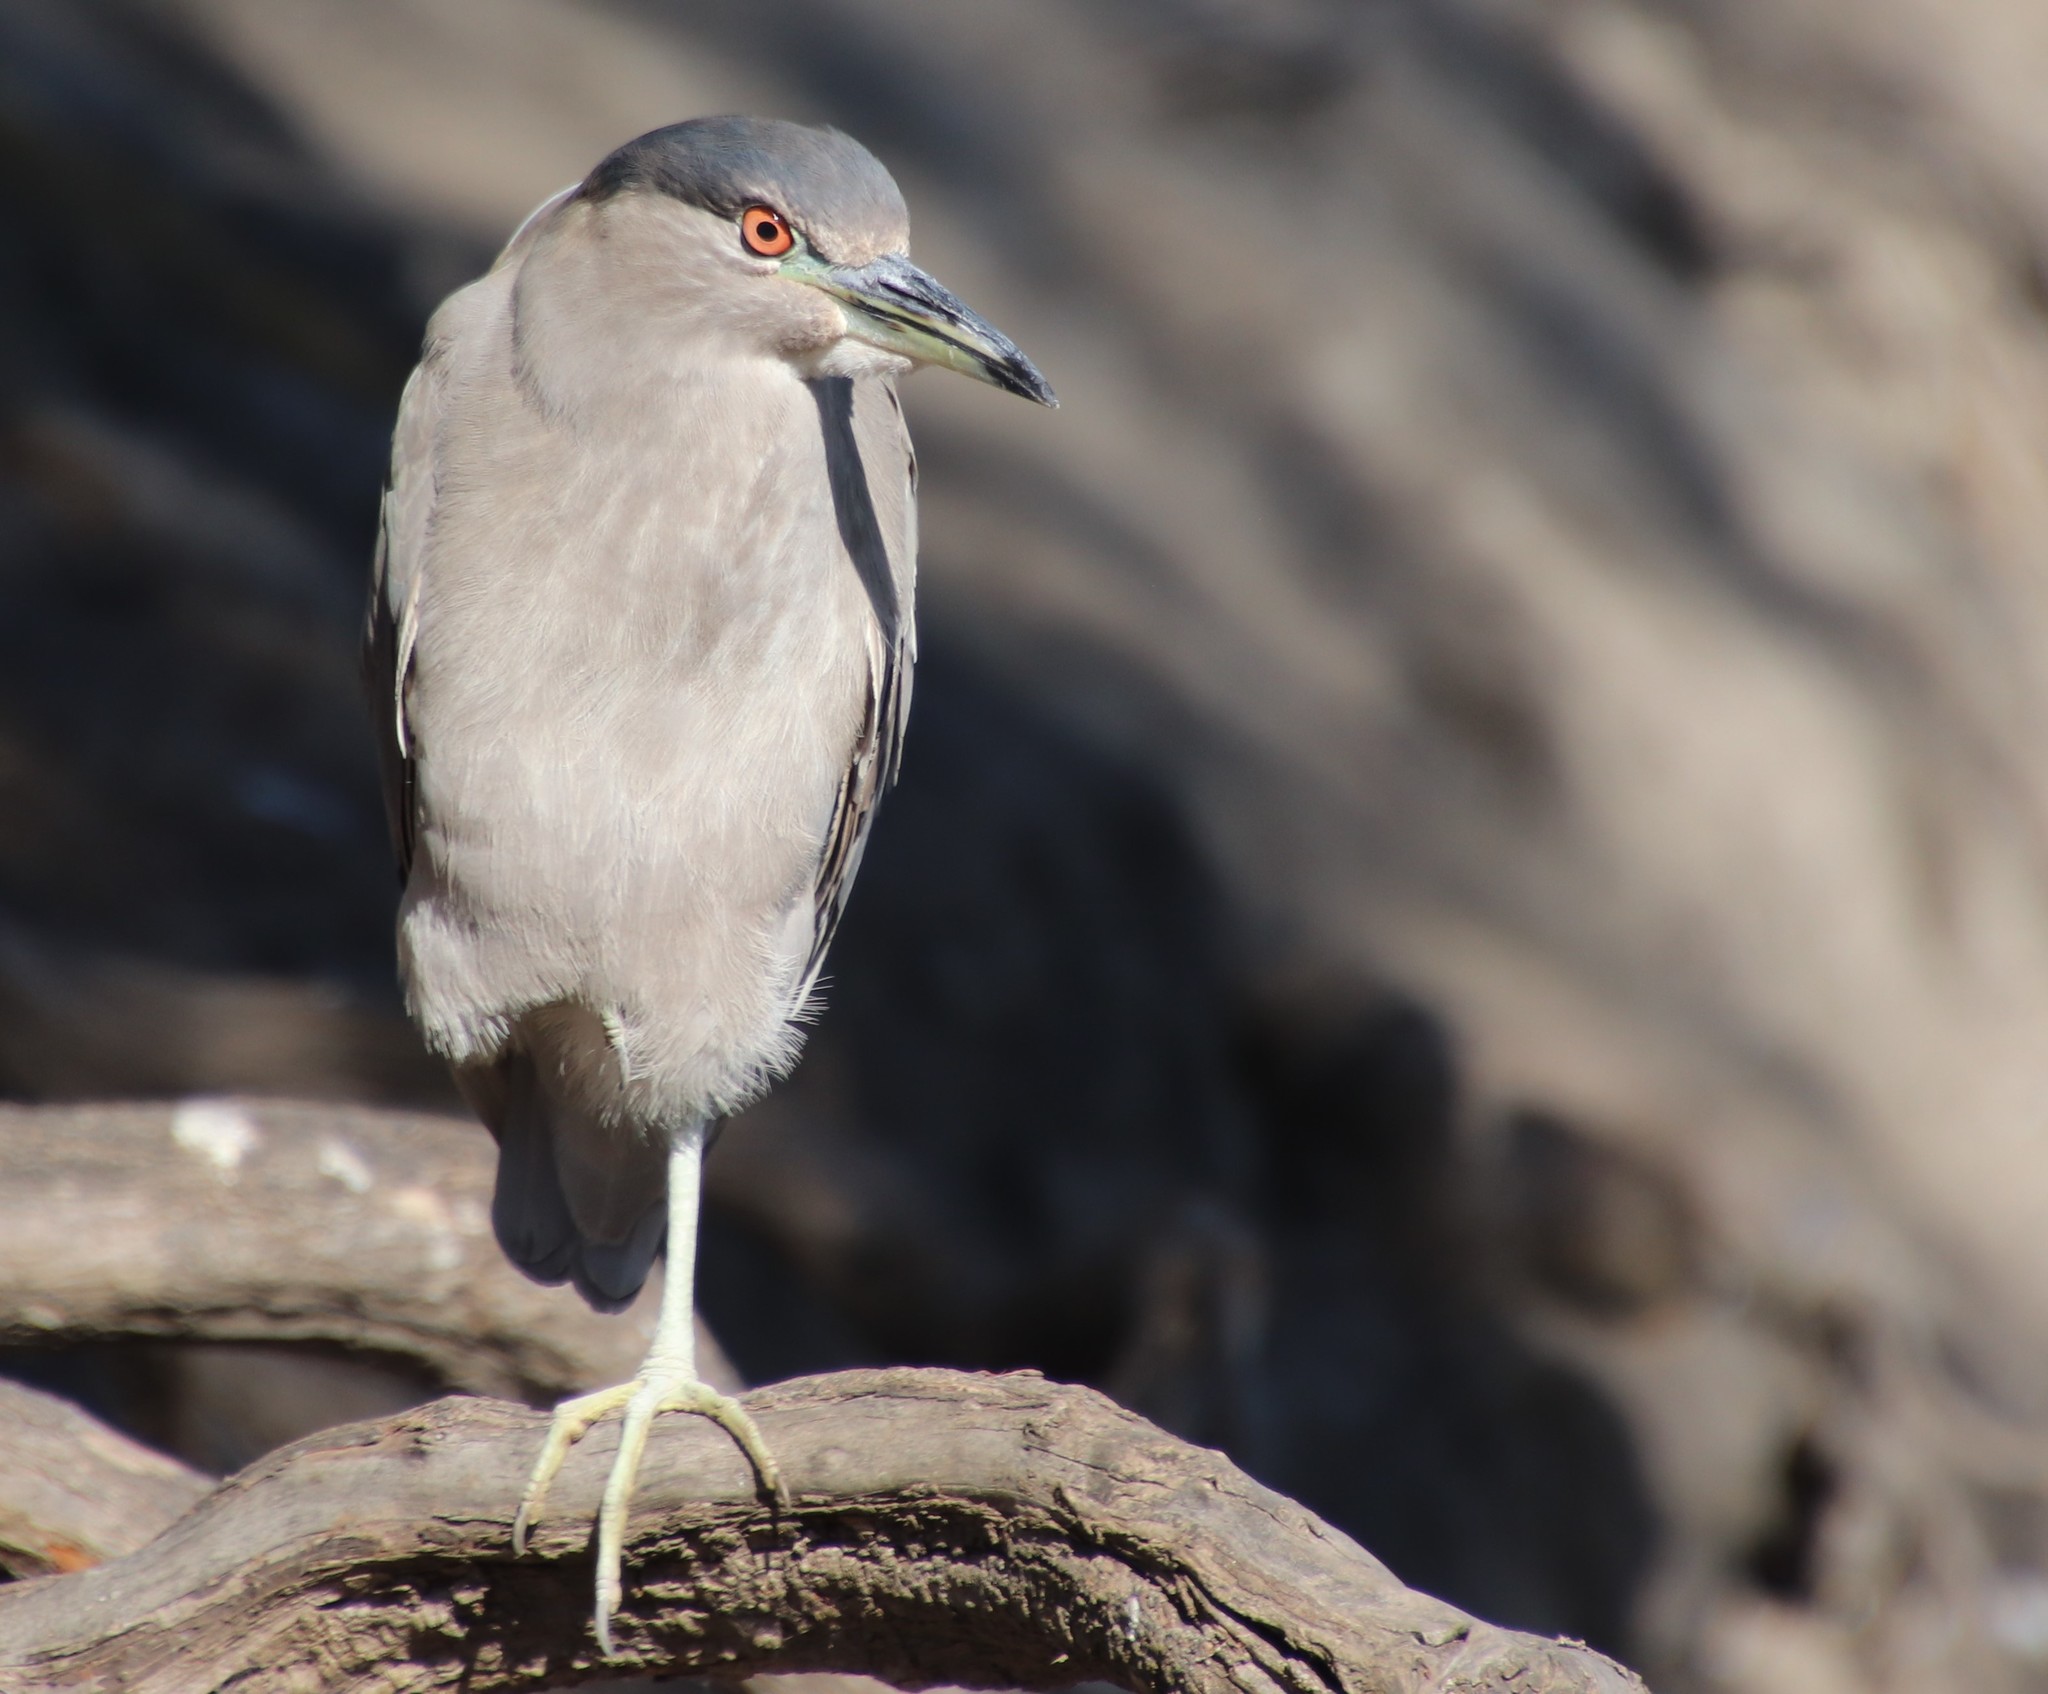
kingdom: Animalia
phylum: Chordata
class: Aves
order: Pelecaniformes
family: Ardeidae
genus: Nycticorax
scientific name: Nycticorax nycticorax
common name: Black-crowned night heron
